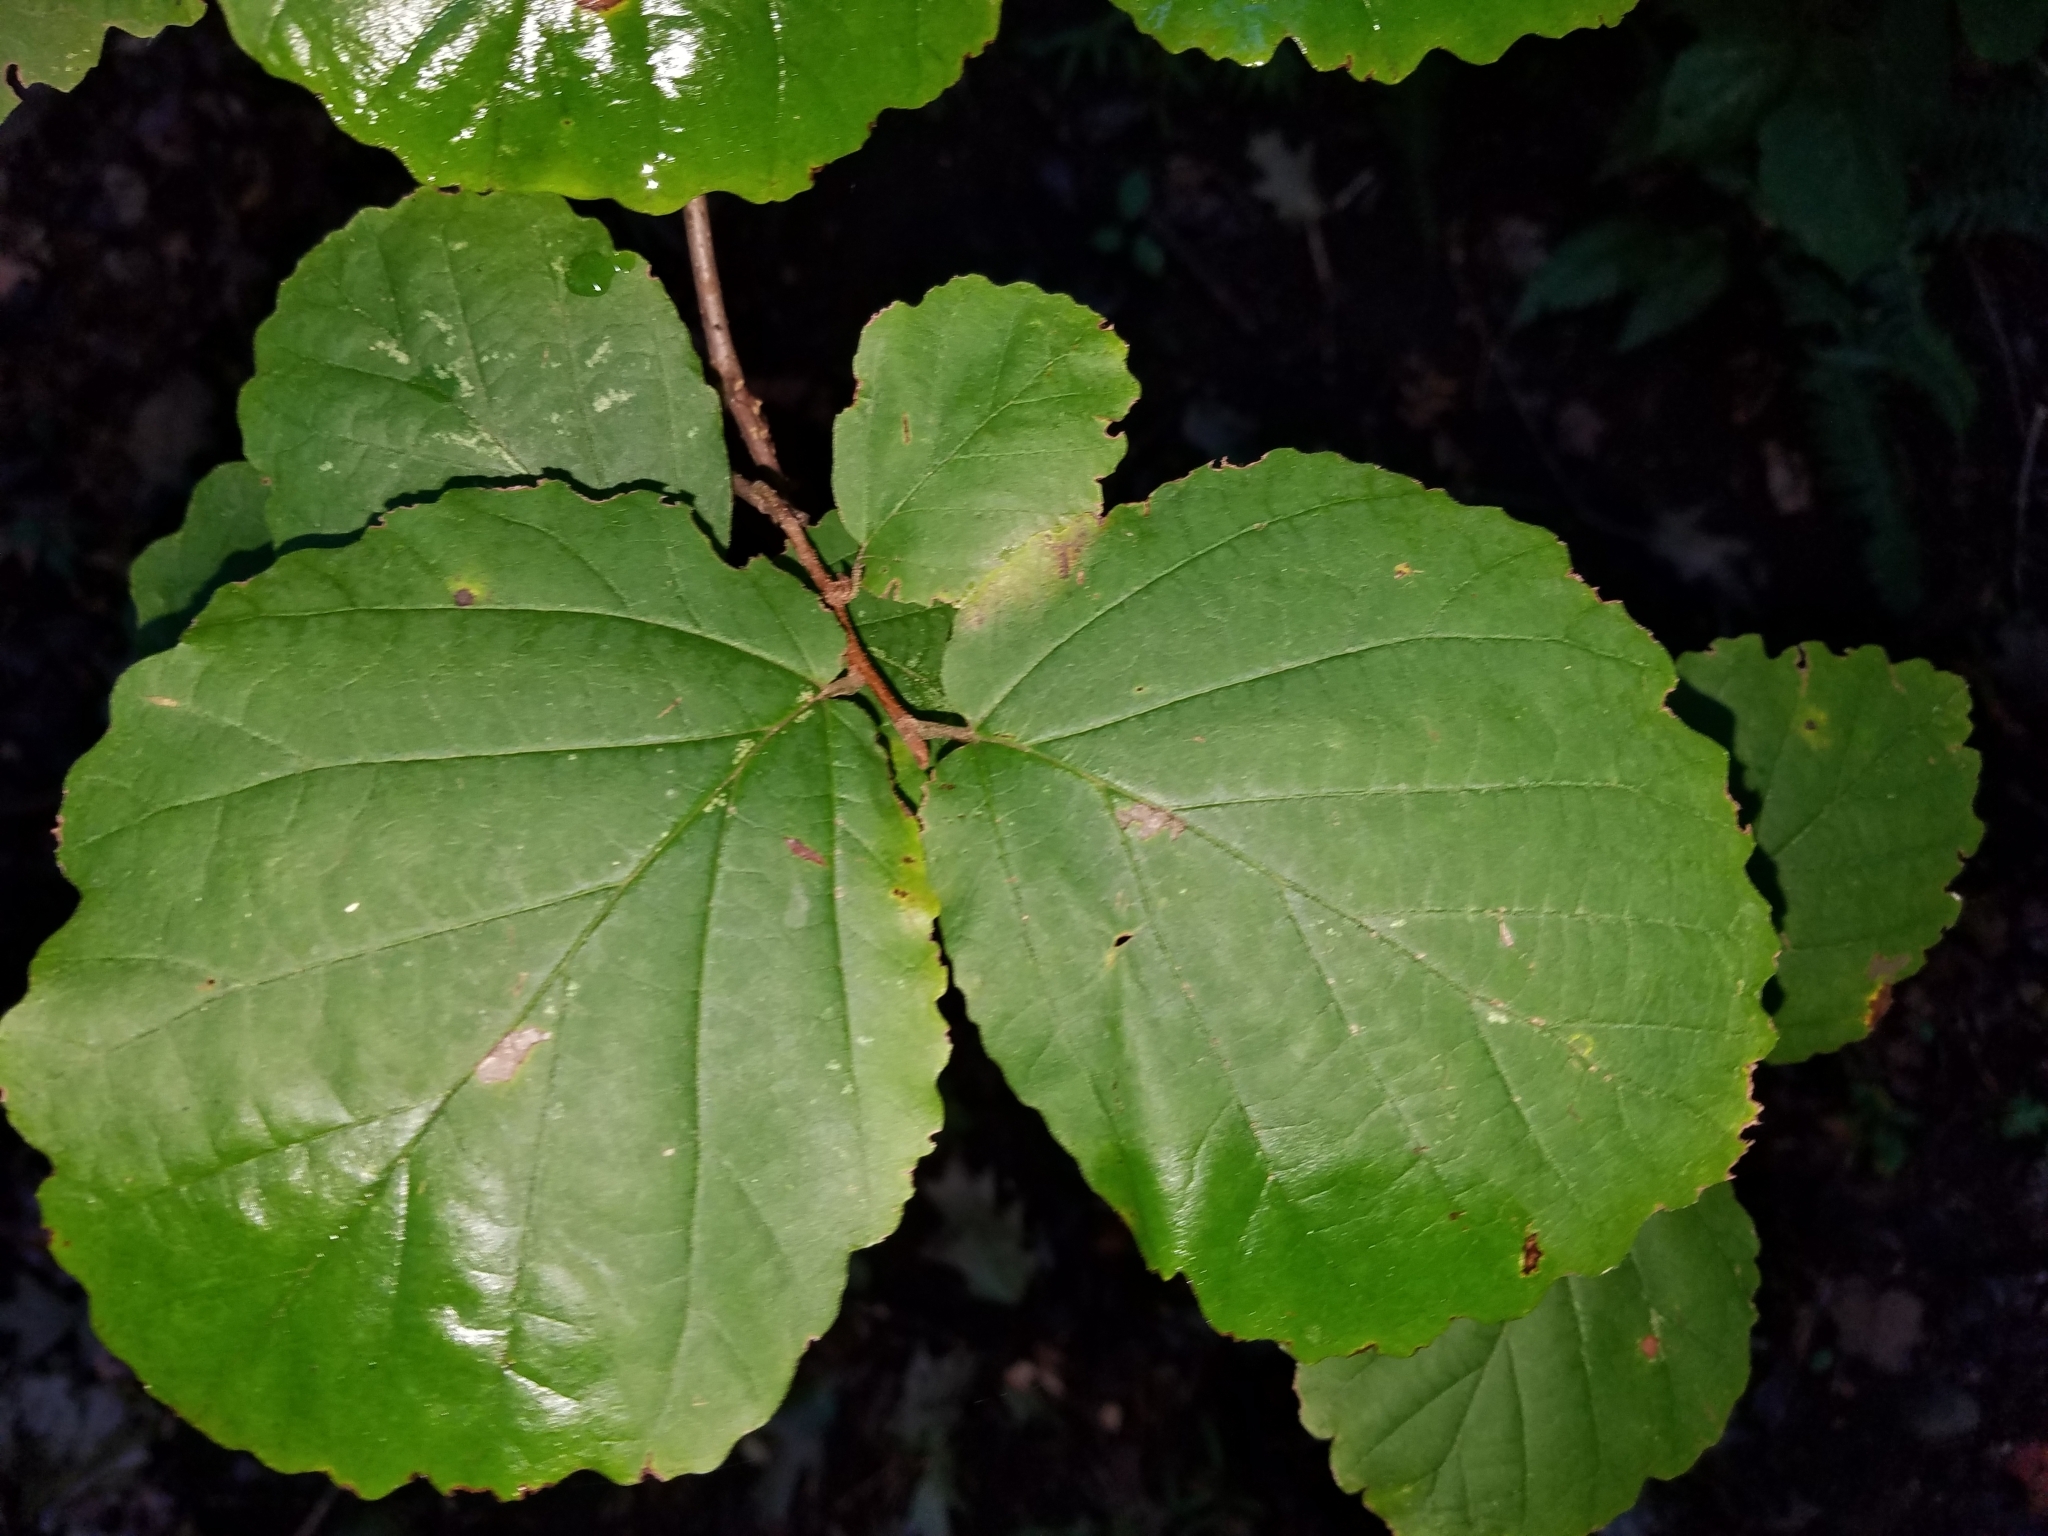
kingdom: Plantae
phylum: Tracheophyta
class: Magnoliopsida
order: Saxifragales
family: Hamamelidaceae
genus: Hamamelis
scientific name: Hamamelis virginiana
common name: Witch-hazel
